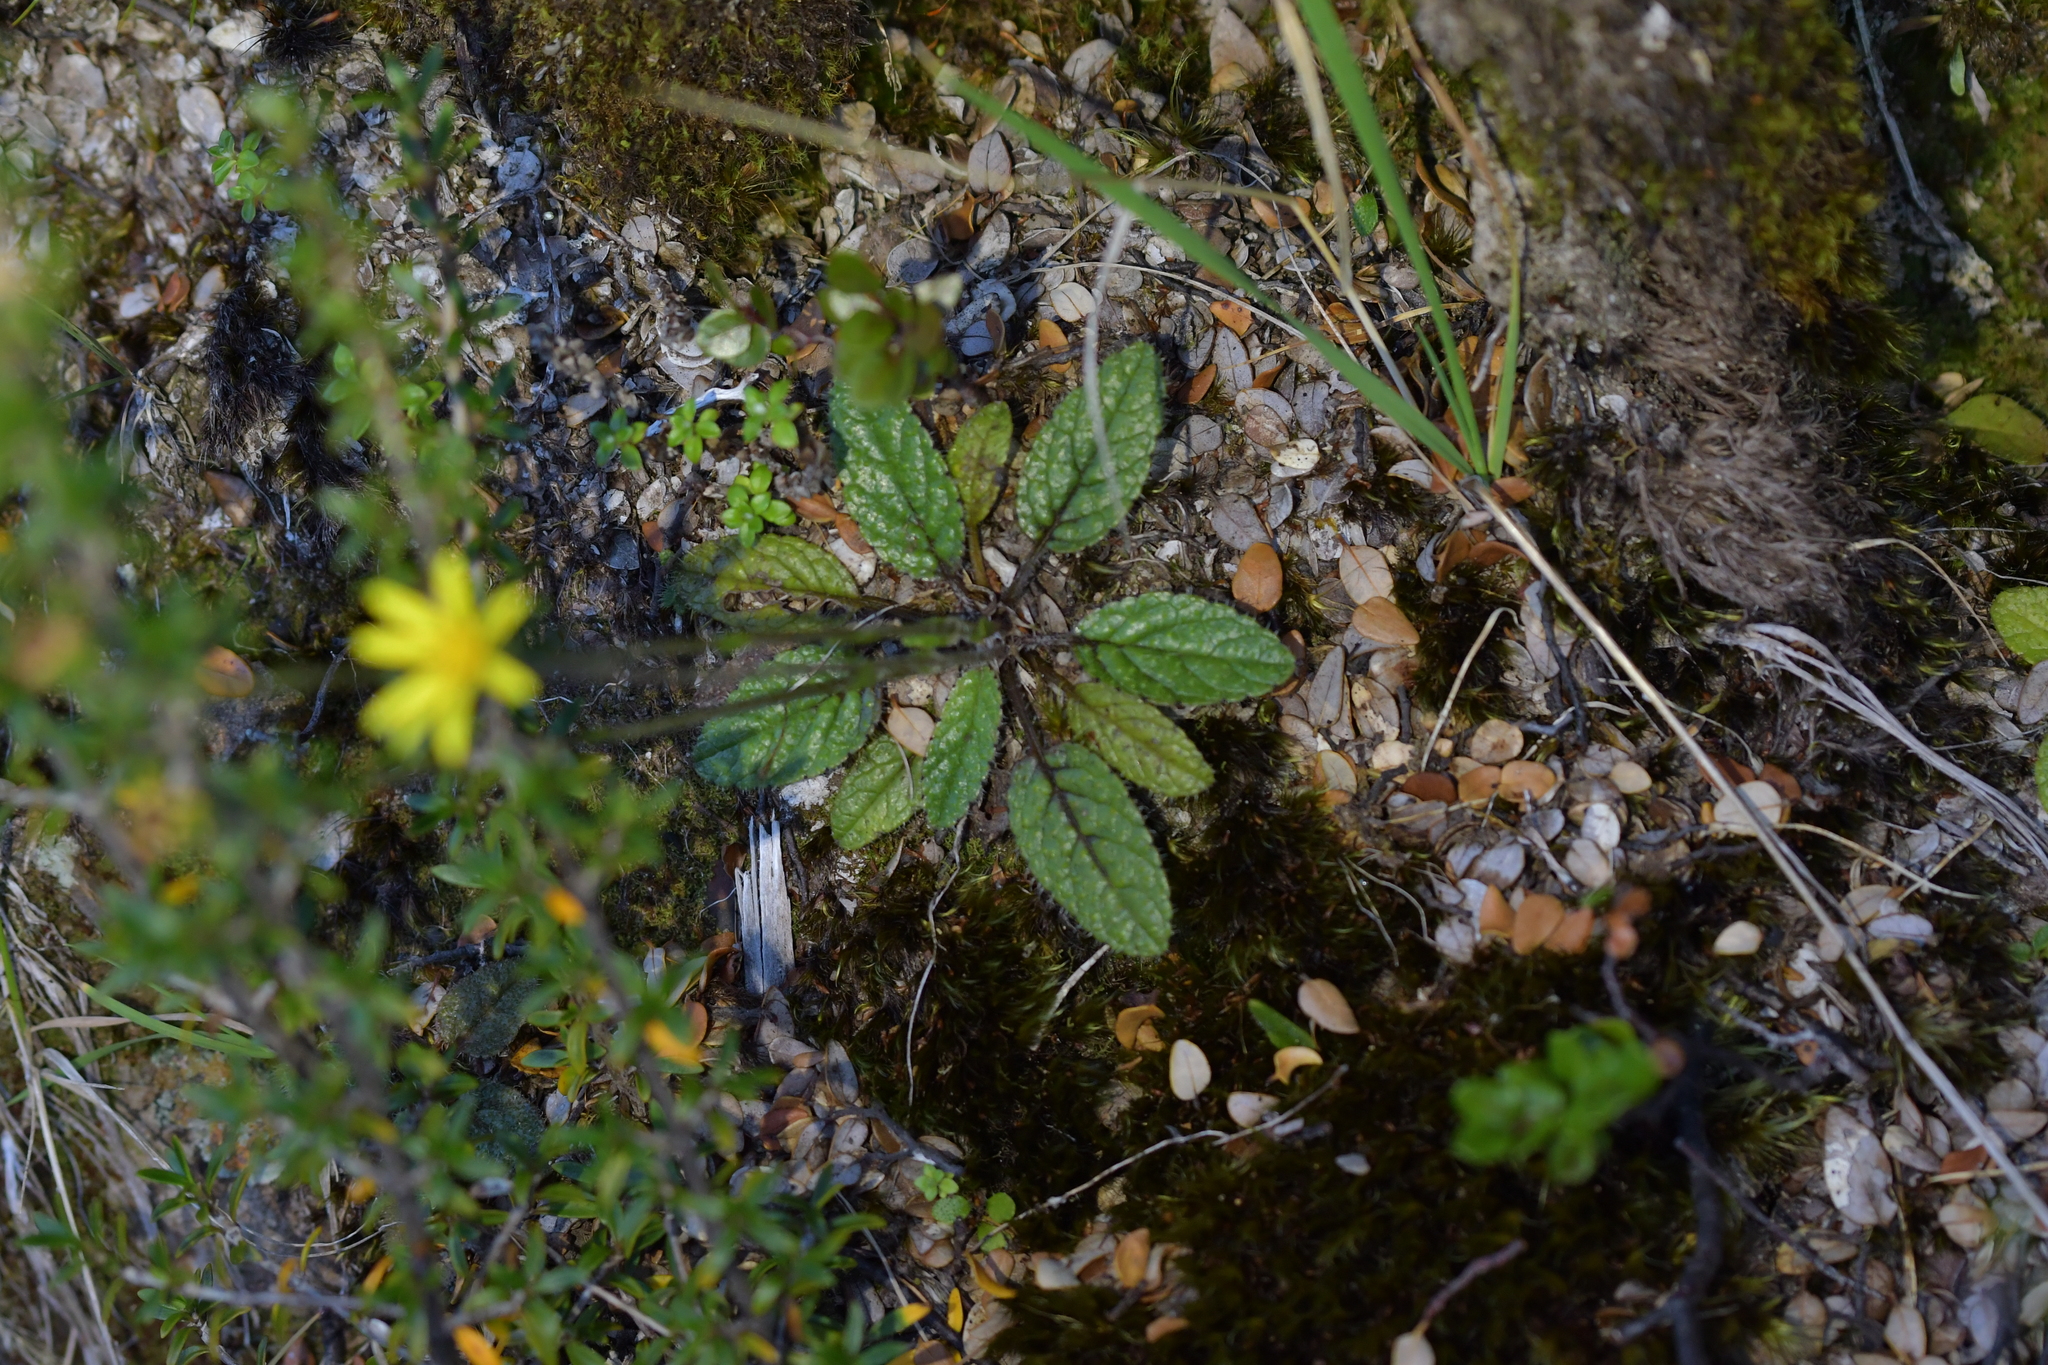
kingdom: Plantae
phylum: Tracheophyta
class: Magnoliopsida
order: Asterales
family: Asteraceae
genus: Brachyglottis
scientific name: Brachyglottis bellidioides
